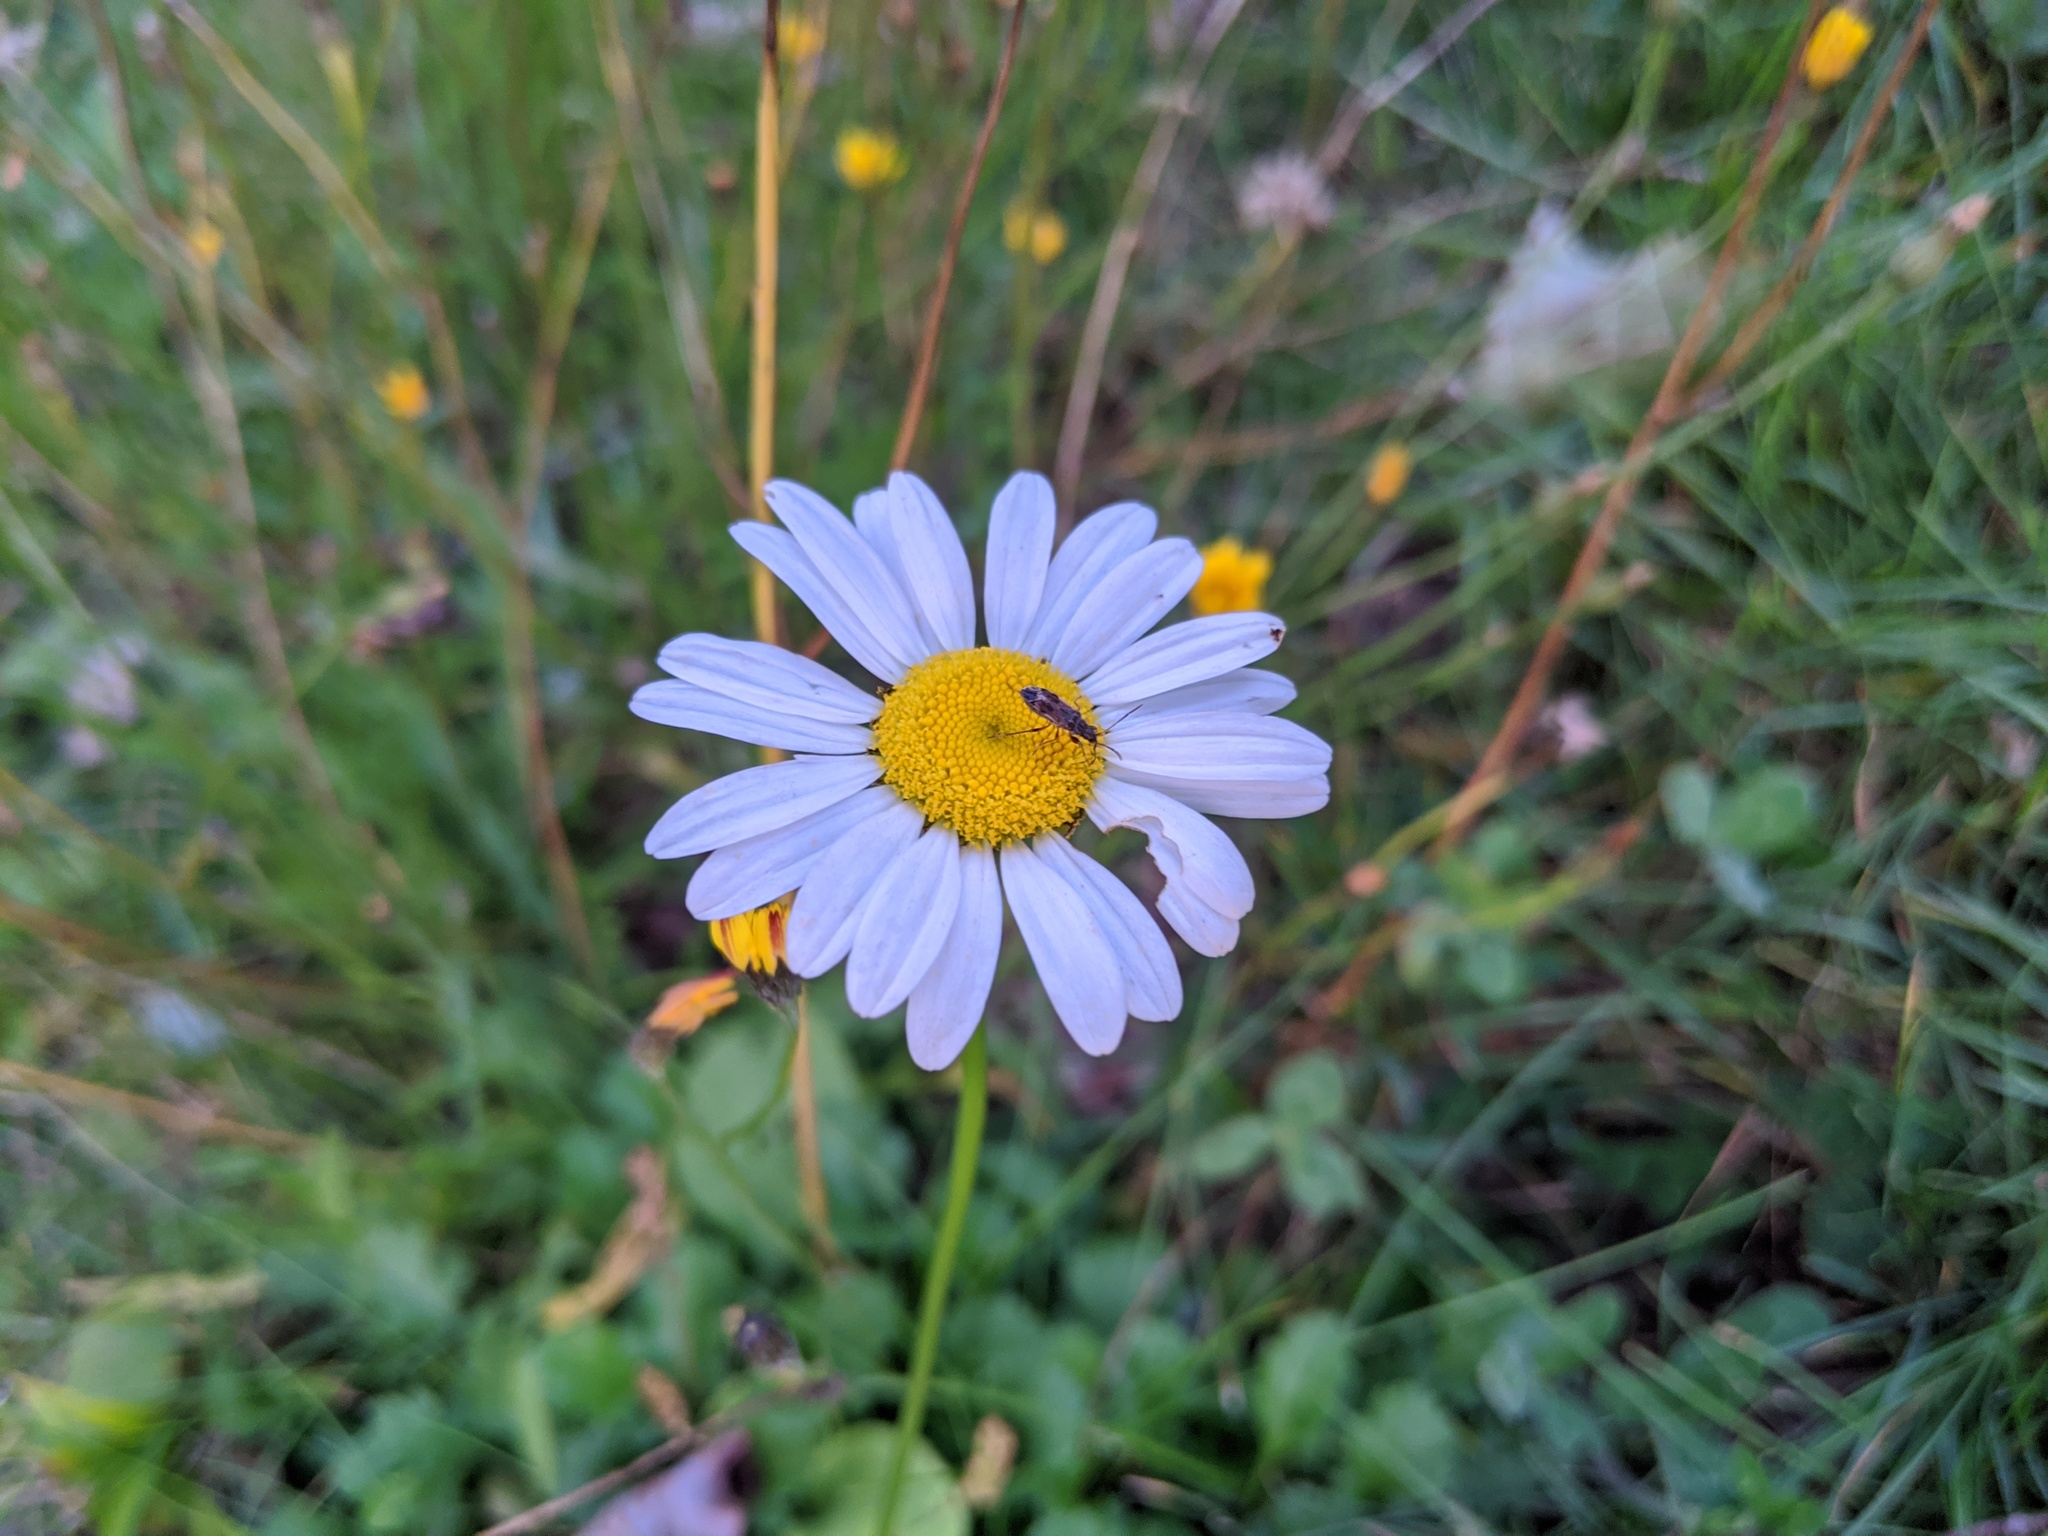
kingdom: Plantae
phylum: Tracheophyta
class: Magnoliopsida
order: Asterales
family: Asteraceae
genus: Leucanthemum
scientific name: Leucanthemum vulgare
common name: Oxeye daisy
